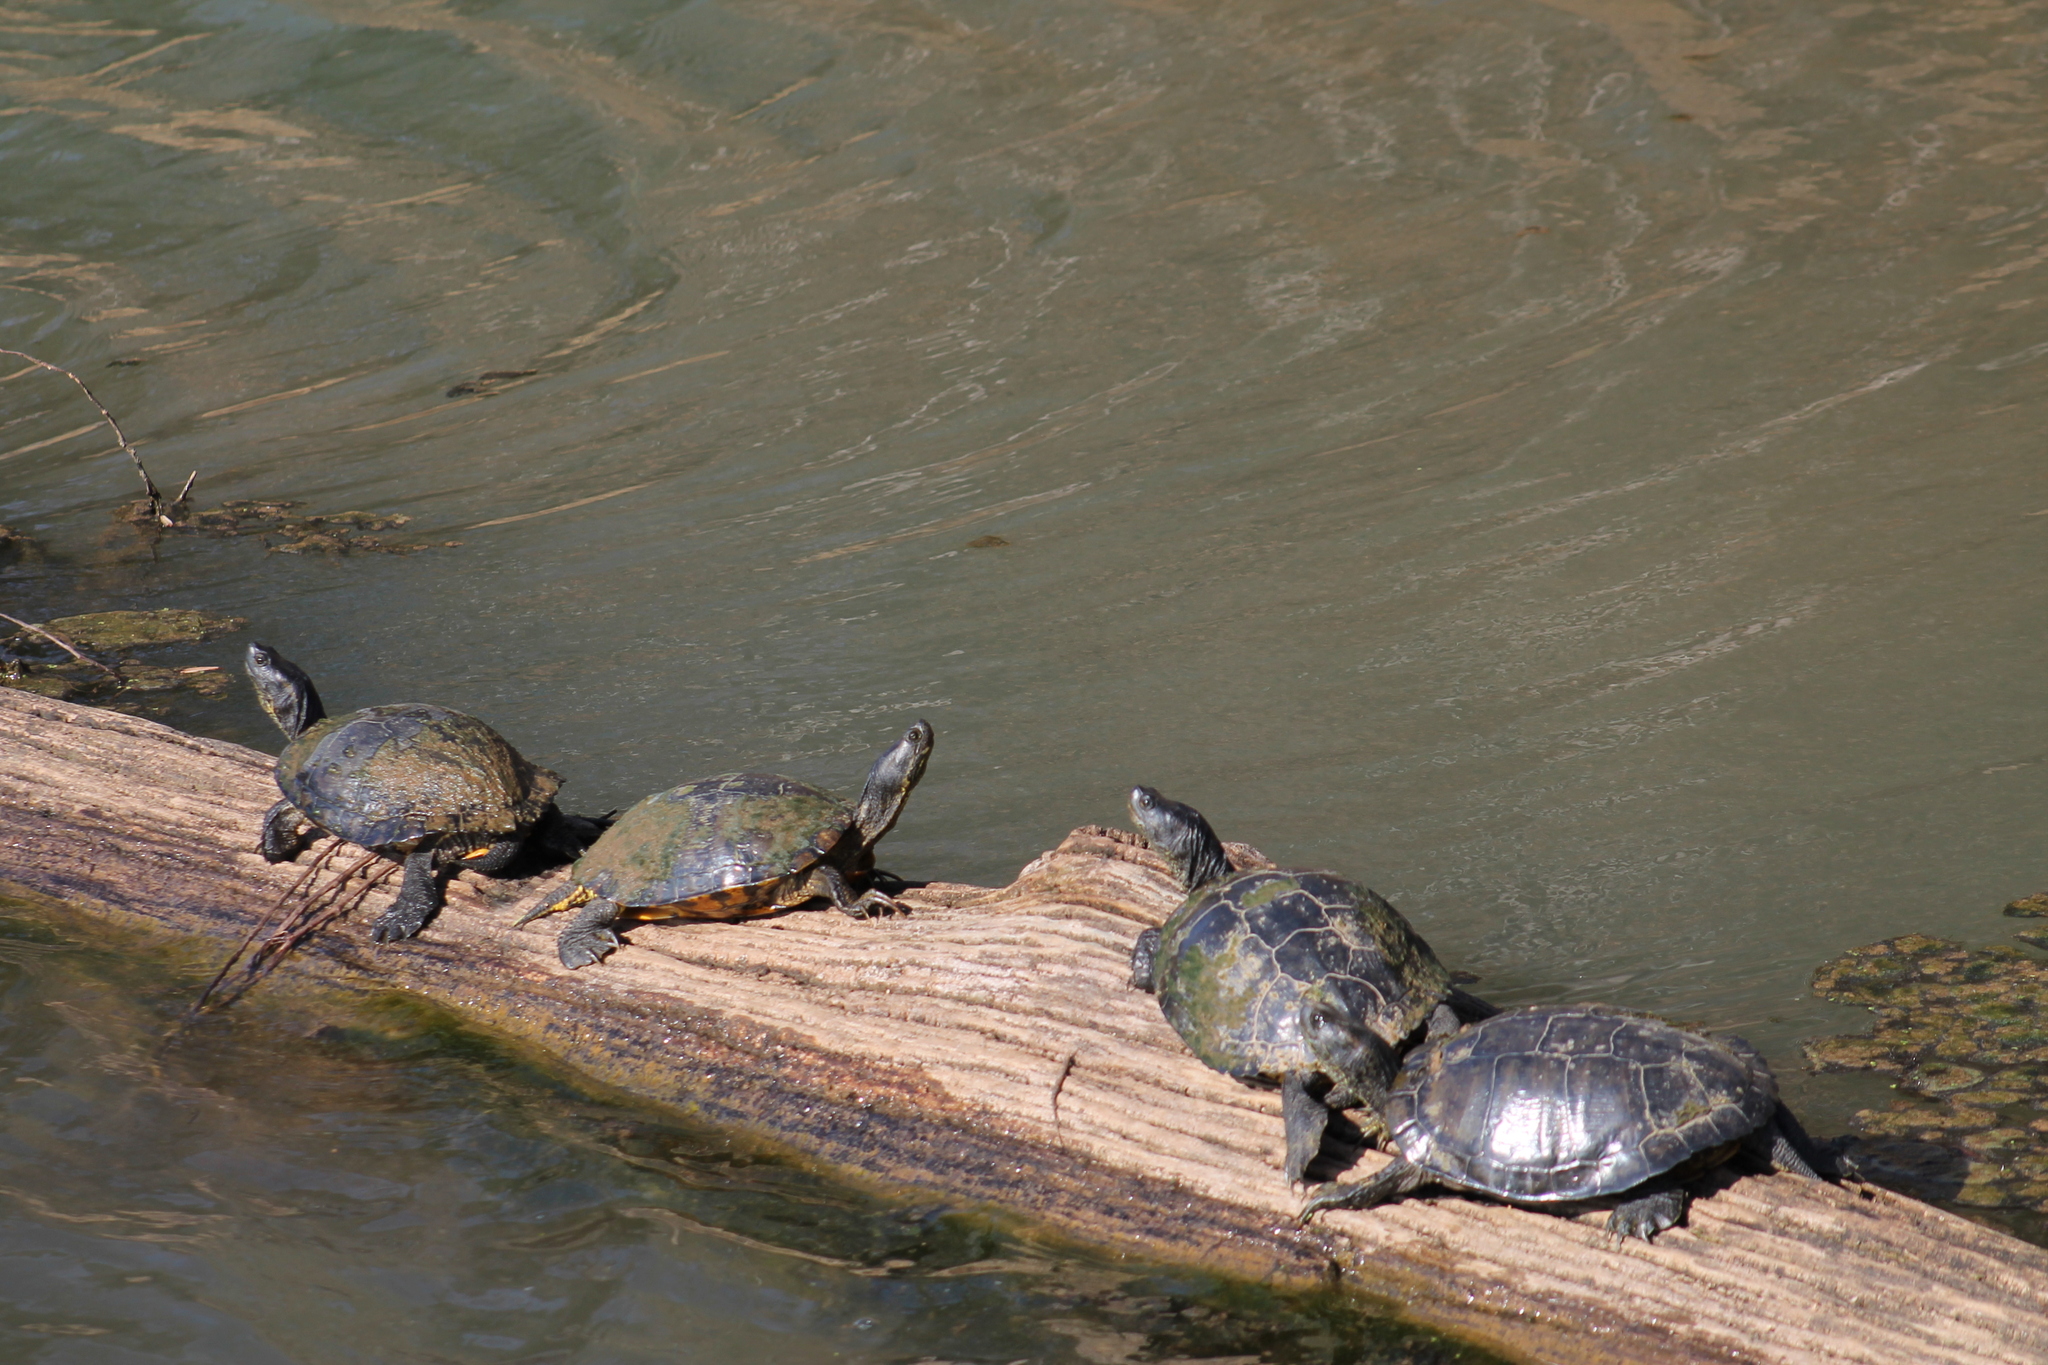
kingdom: Animalia
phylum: Chordata
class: Testudines
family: Emydidae
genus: Trachemys
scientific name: Trachemys scripta
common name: Slider
